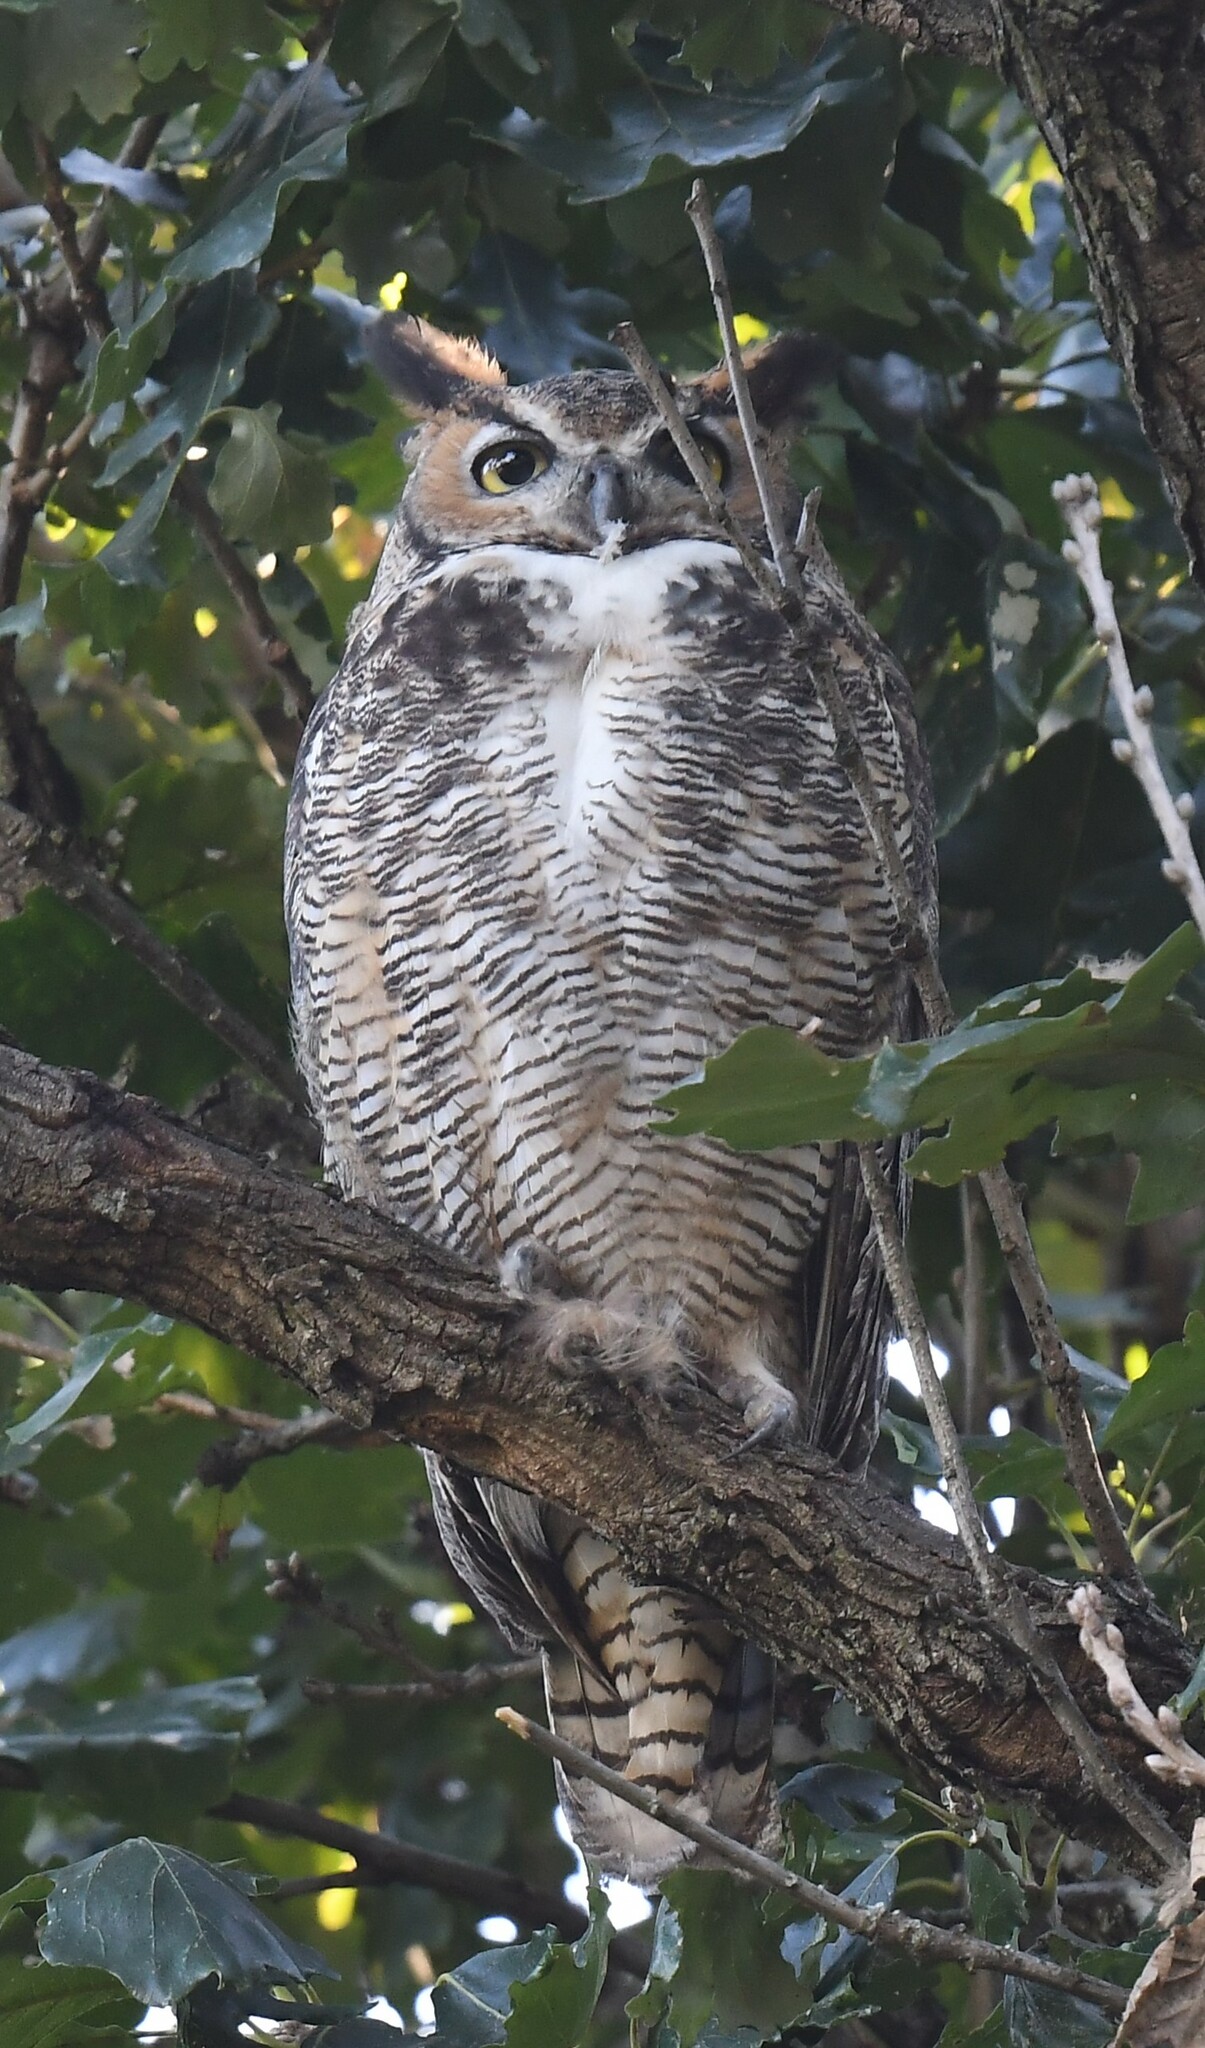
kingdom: Animalia
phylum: Chordata
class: Aves
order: Strigiformes
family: Strigidae
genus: Bubo
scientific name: Bubo virginianus
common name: Great horned owl
